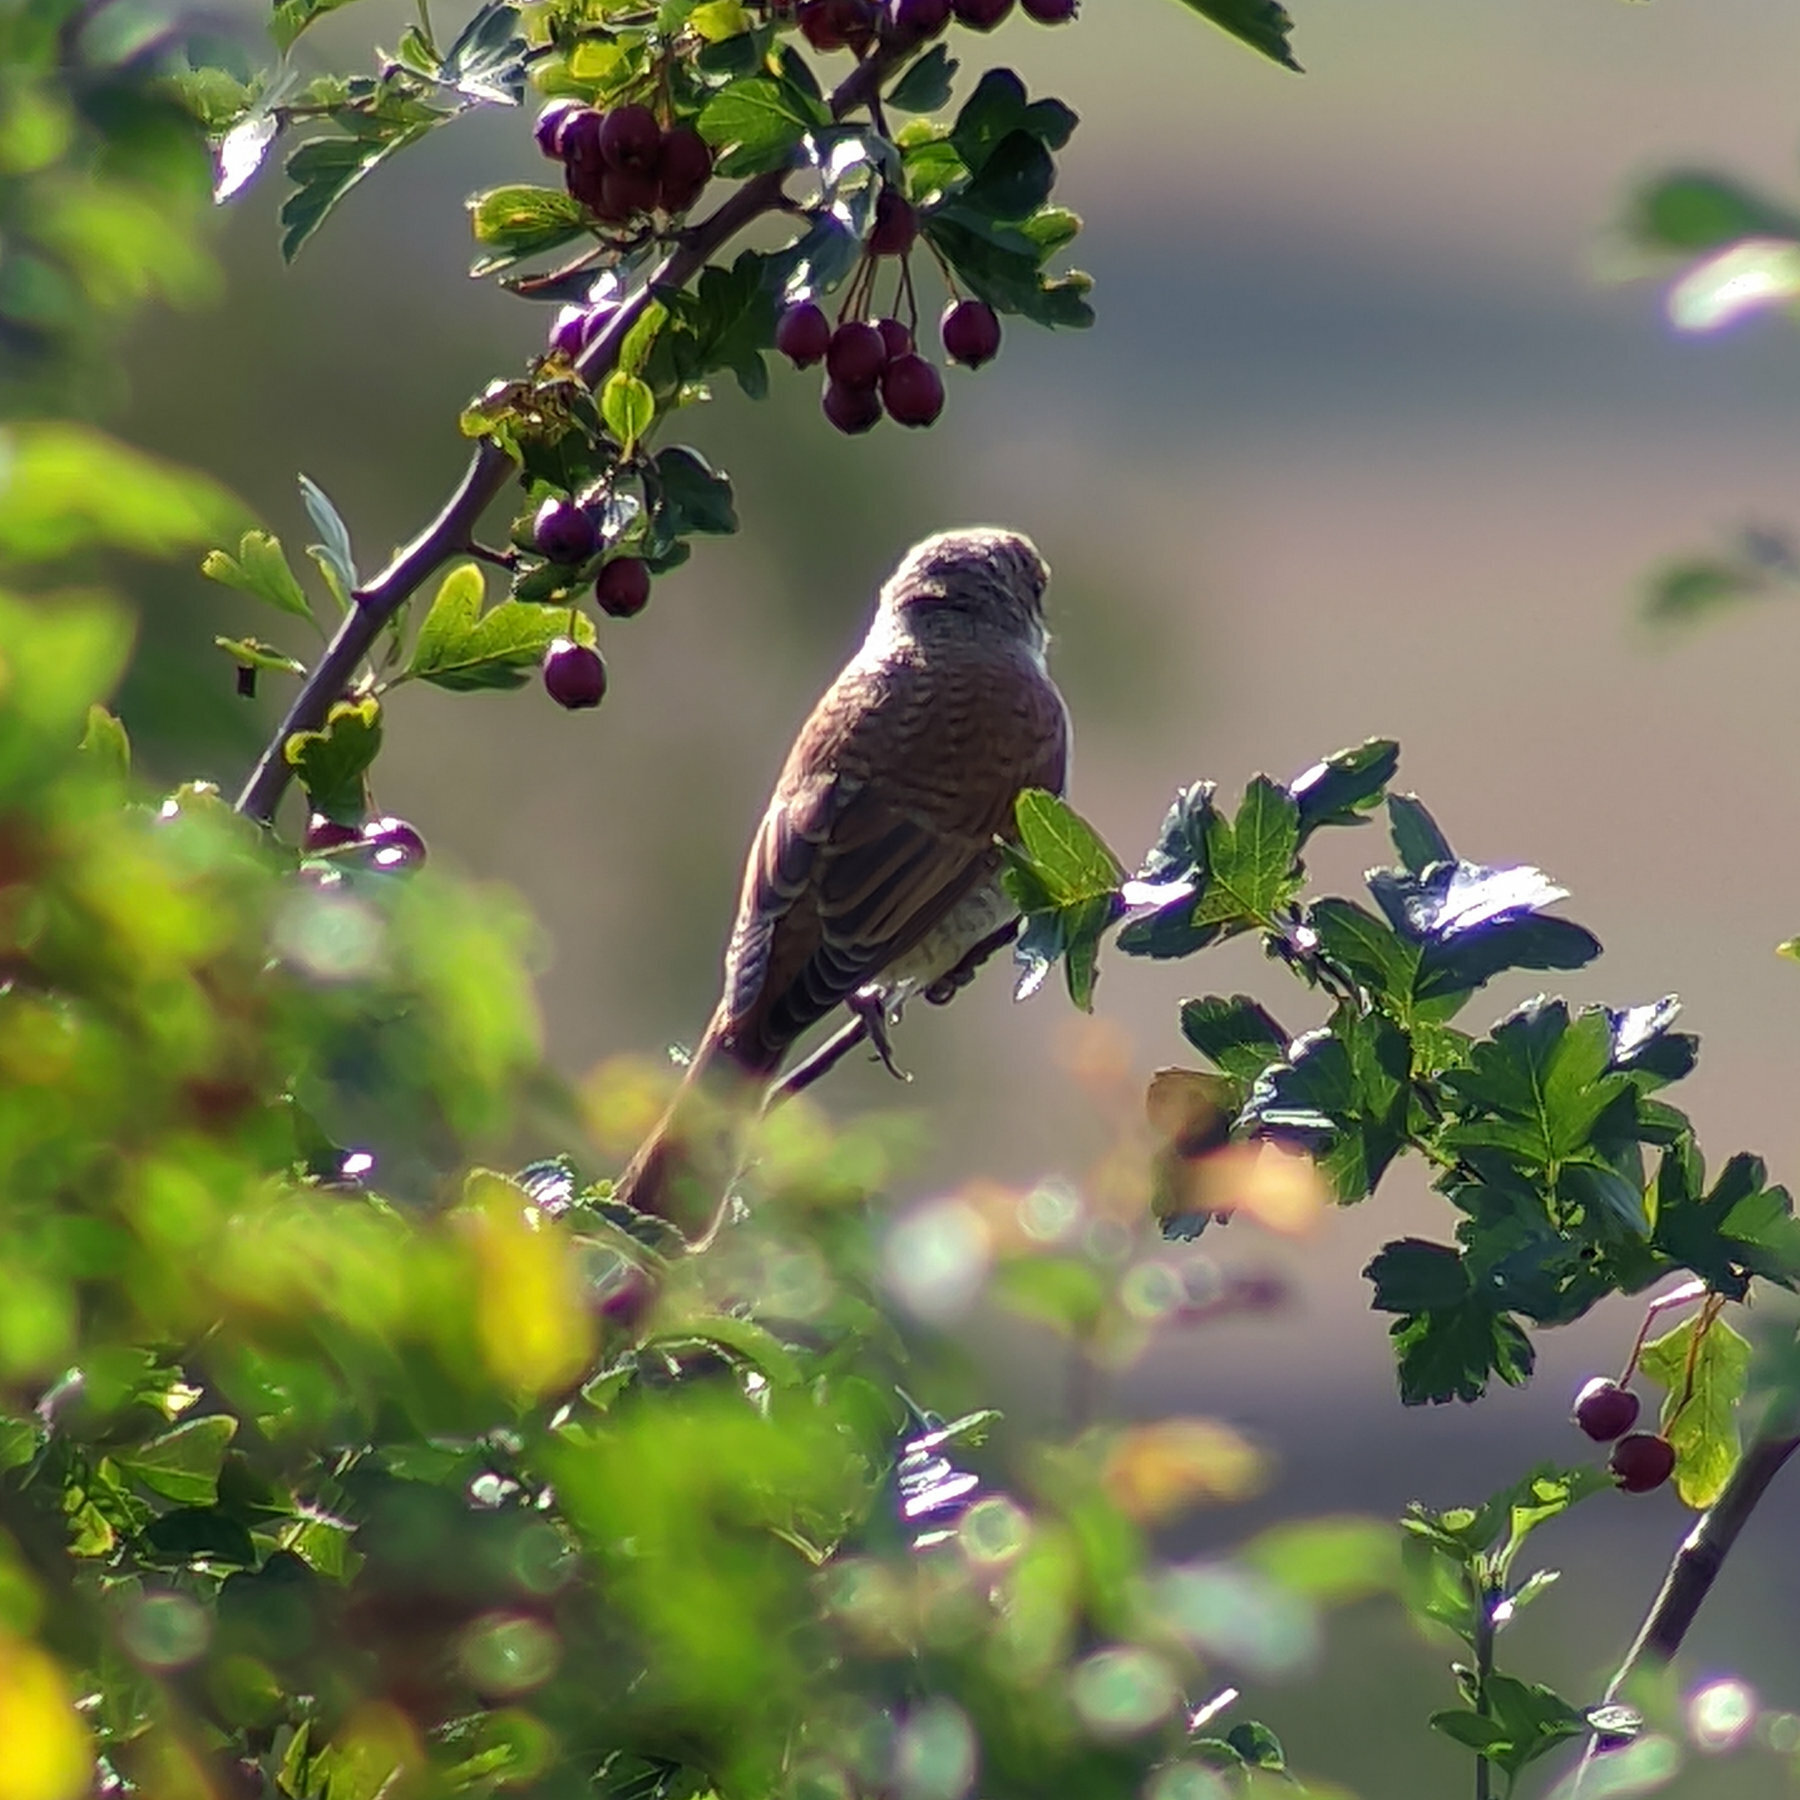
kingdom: Animalia
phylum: Chordata
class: Aves
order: Passeriformes
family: Laniidae
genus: Lanius
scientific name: Lanius collurio
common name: Red-backed shrike
